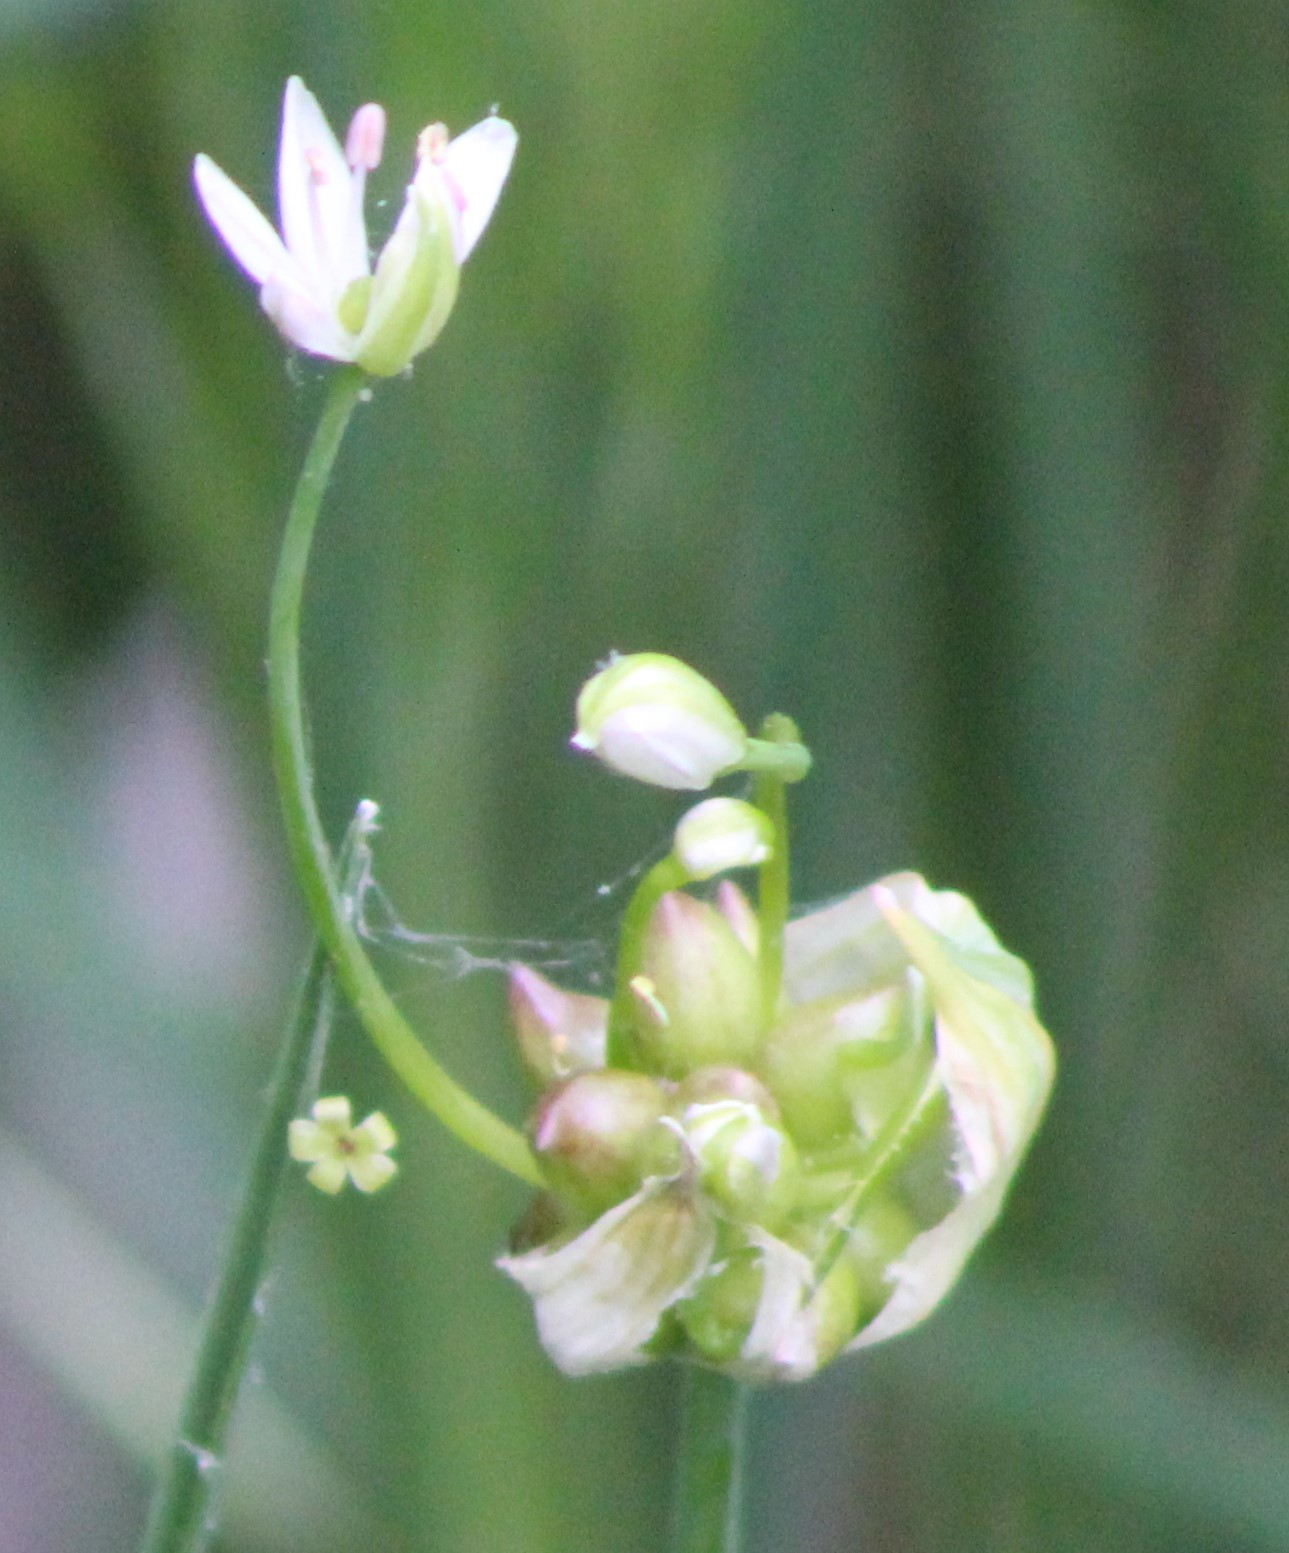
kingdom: Plantae
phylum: Tracheophyta
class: Liliopsida
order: Asparagales
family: Amaryllidaceae
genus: Allium
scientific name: Allium canadense
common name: Meadow garlic
